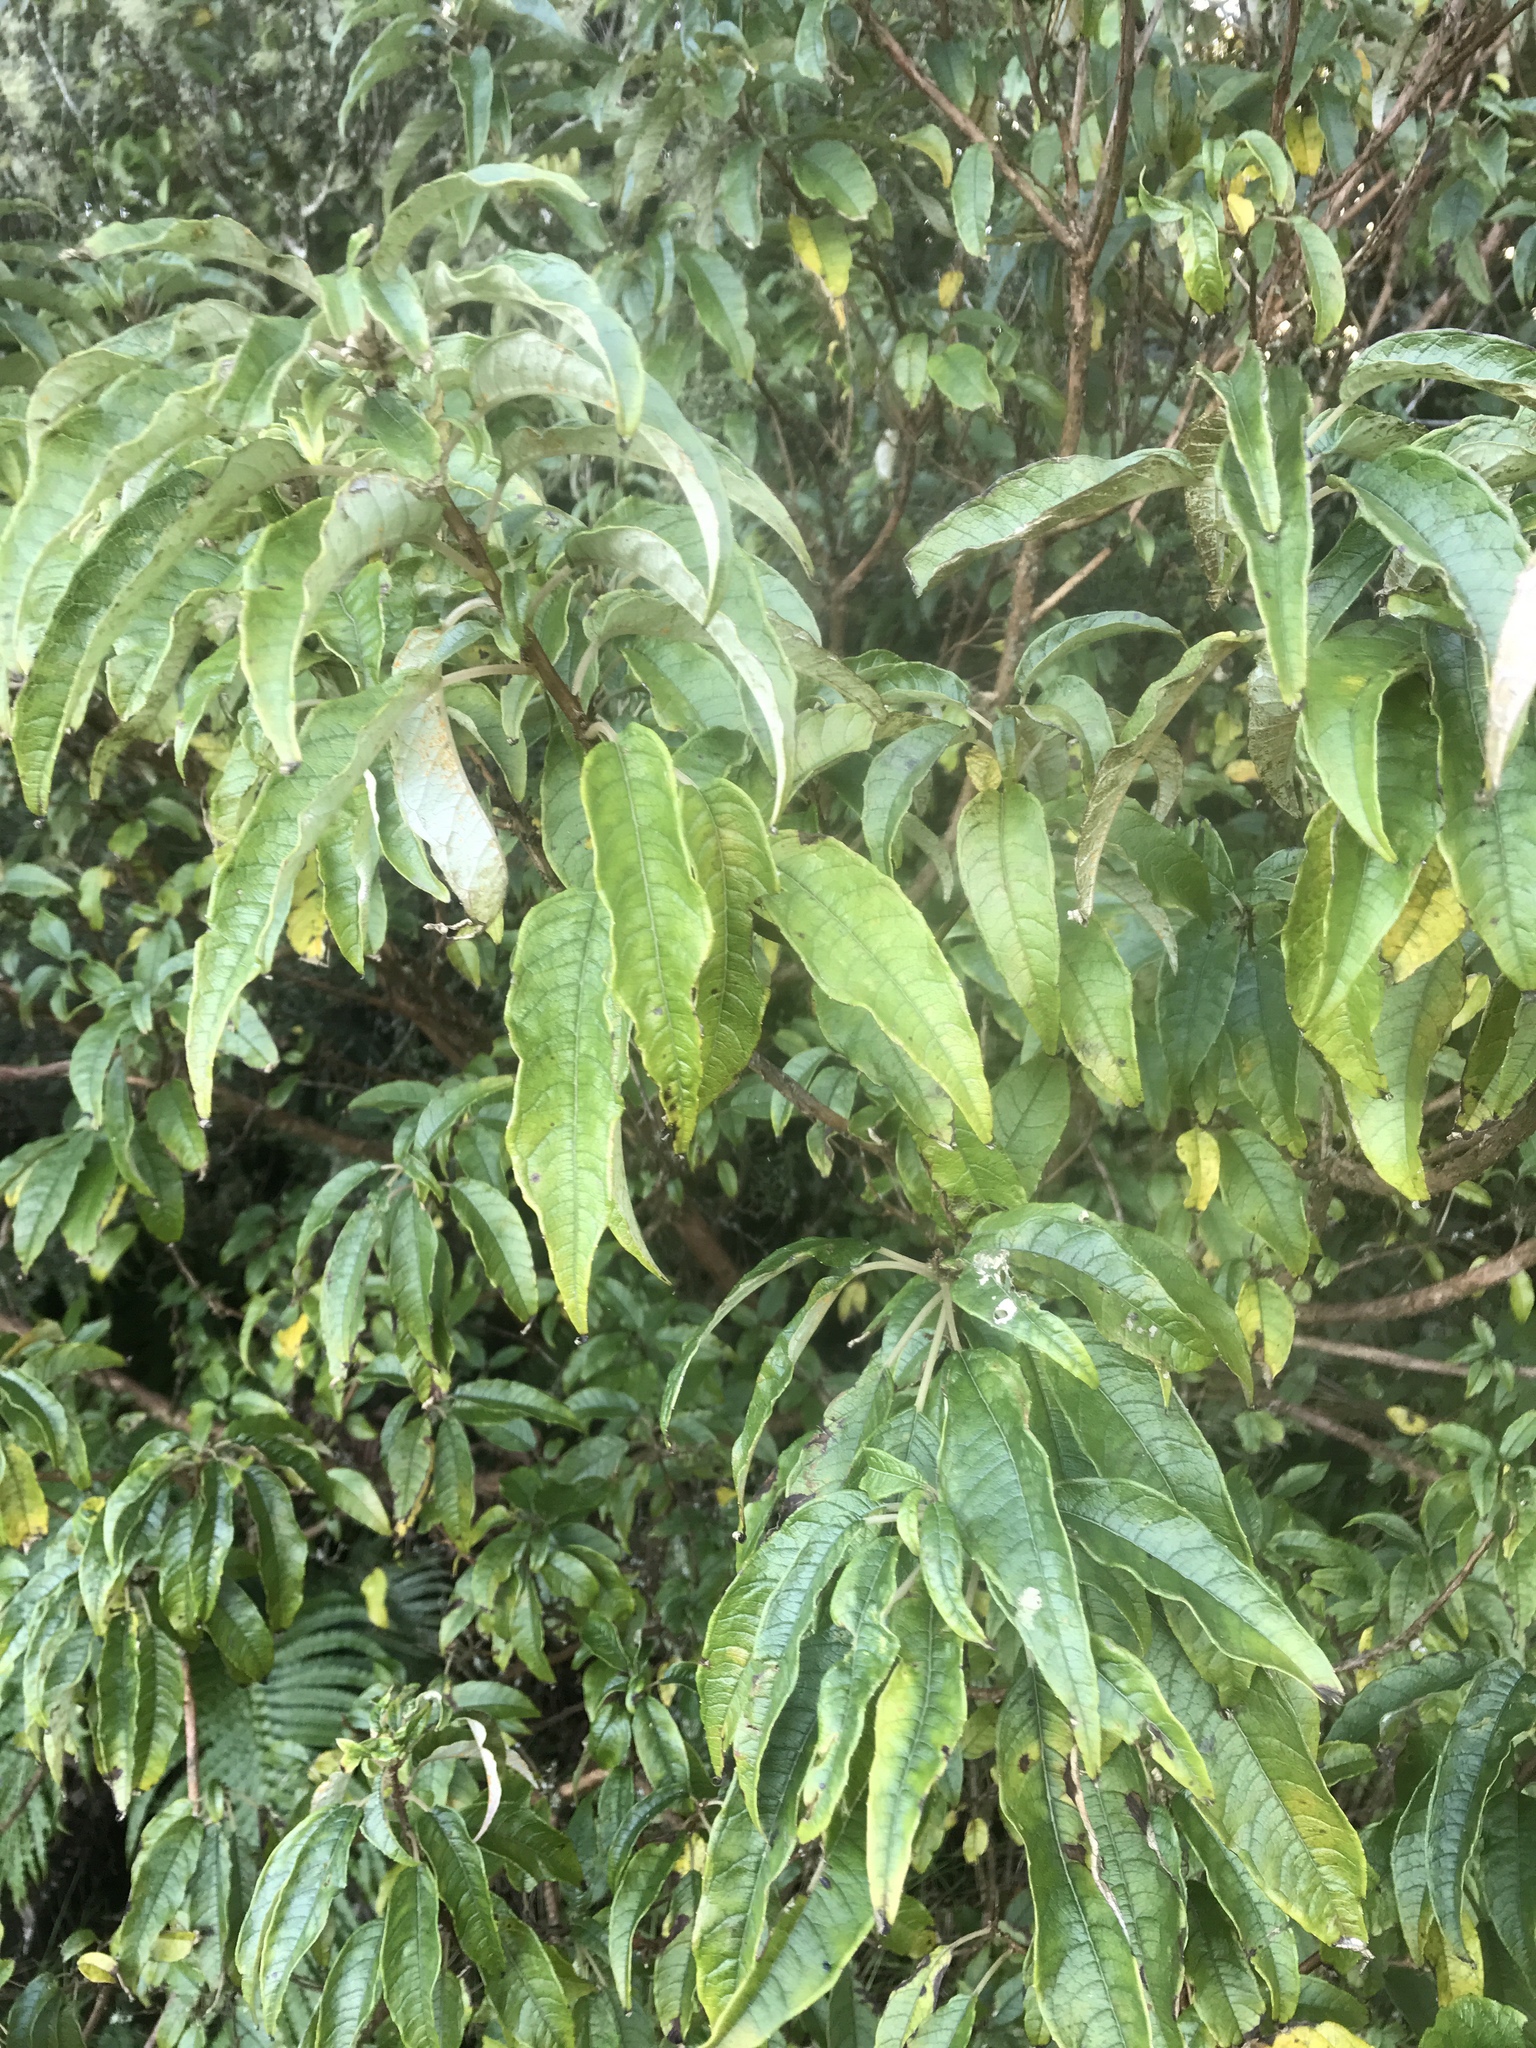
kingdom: Plantae
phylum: Tracheophyta
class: Magnoliopsida
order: Myrtales
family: Onagraceae
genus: Fuchsia
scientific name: Fuchsia excorticata
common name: Tree fuchsia
